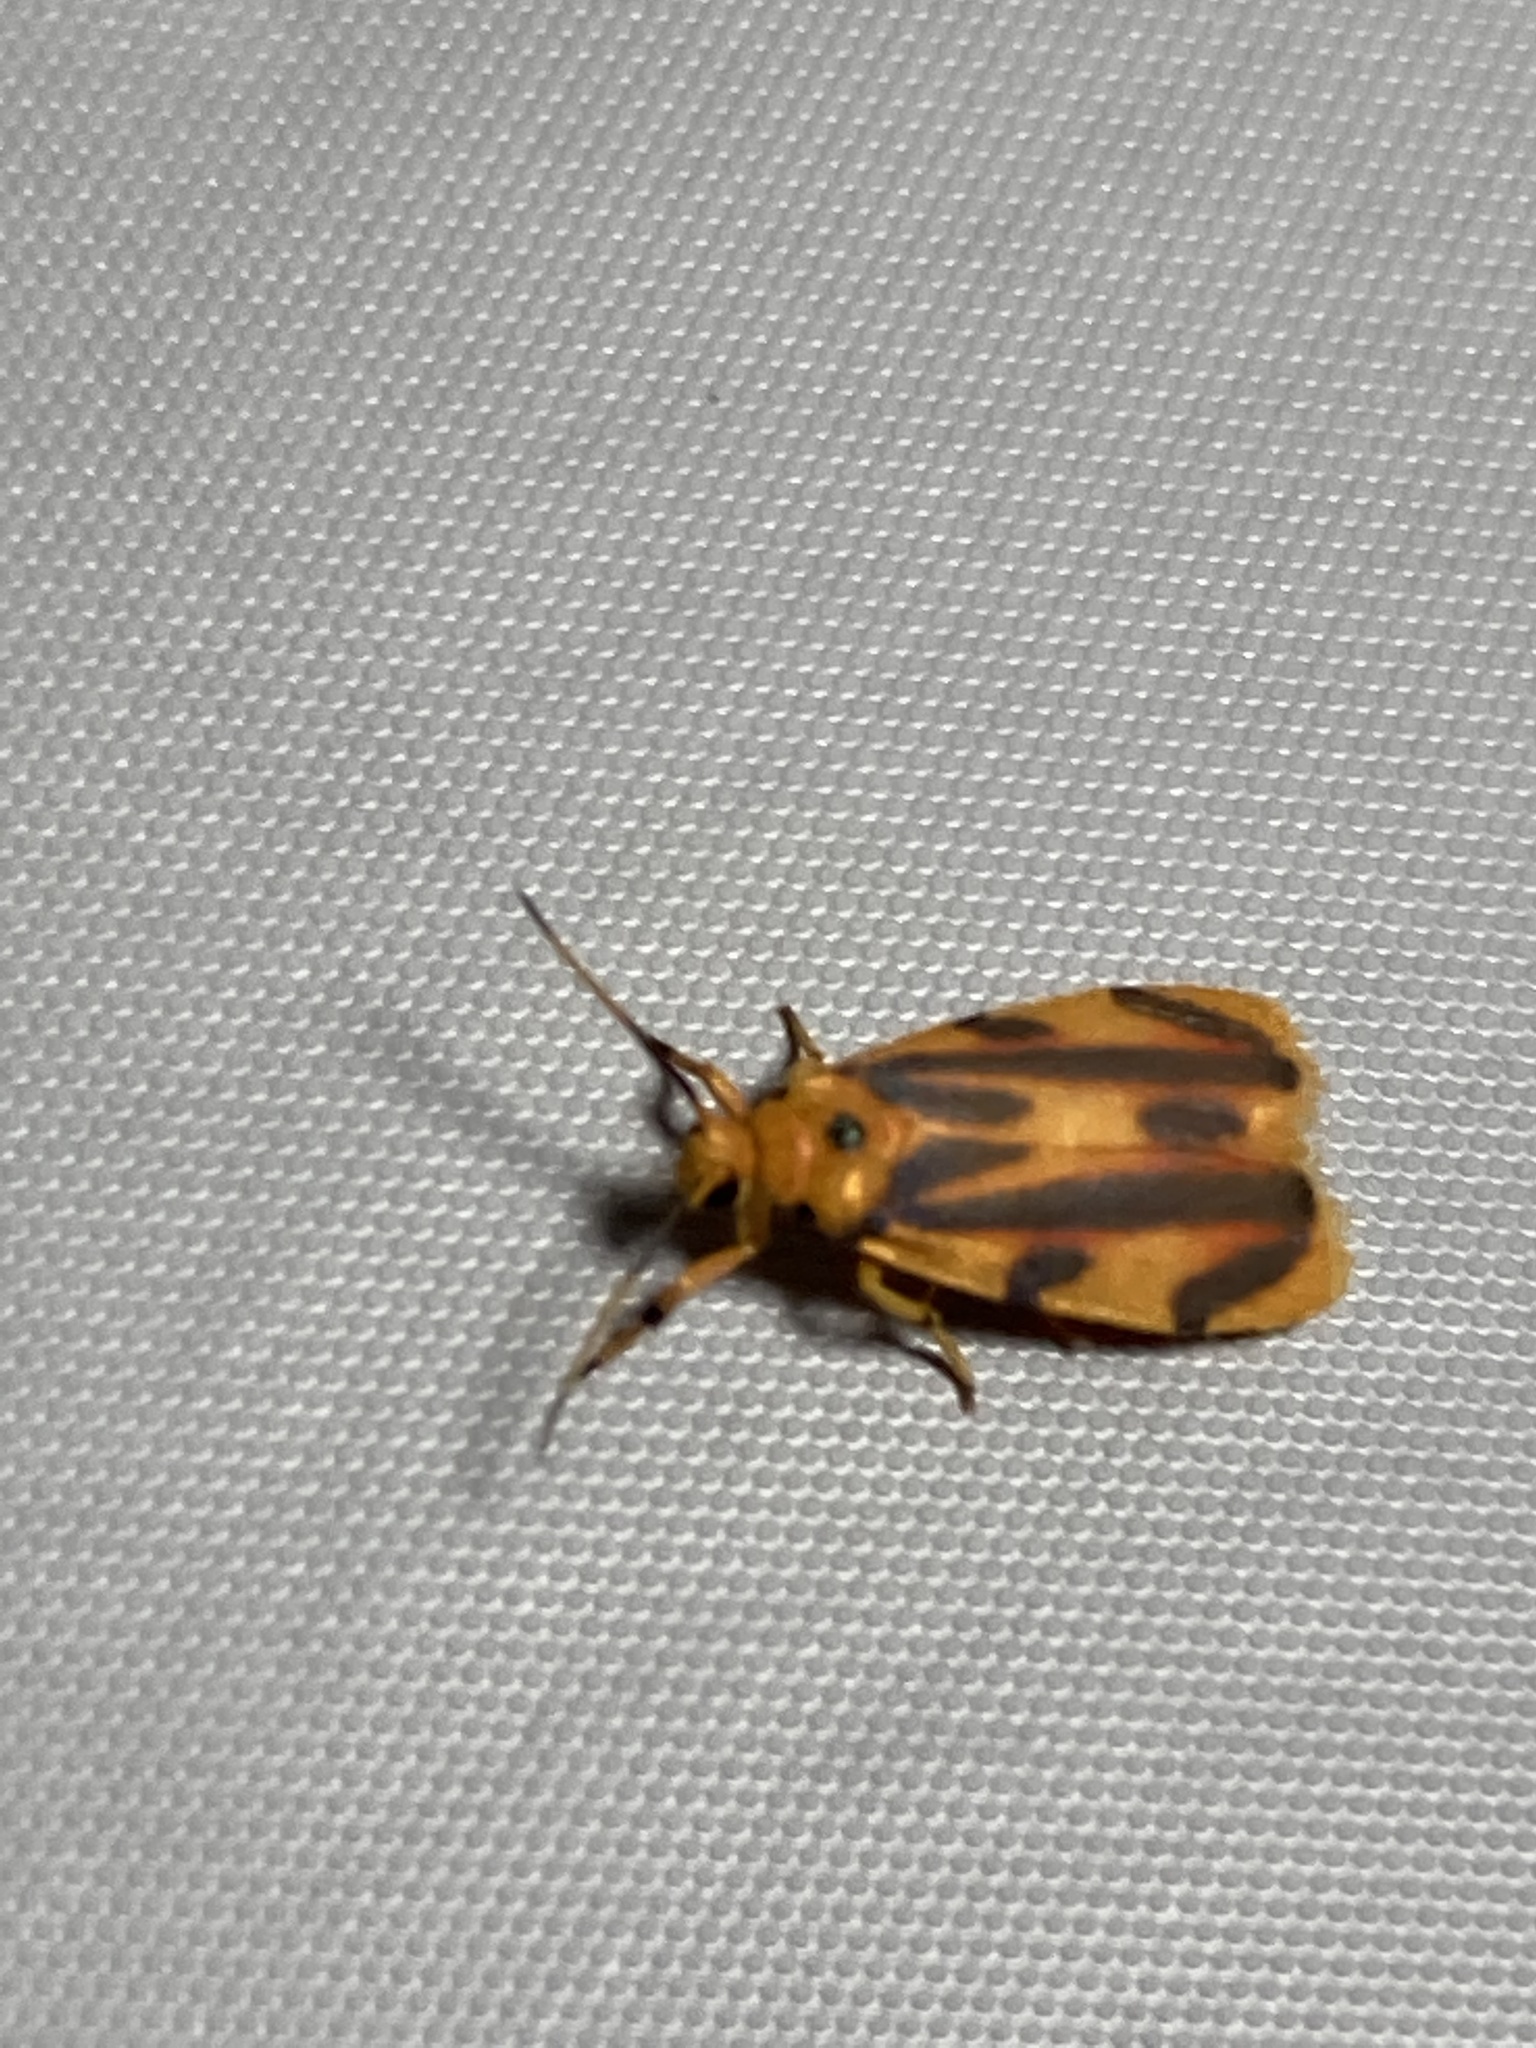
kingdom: Animalia
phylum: Arthropoda
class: Insecta
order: Lepidoptera
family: Erebidae
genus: Nudur
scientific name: Nudur fractivittarum
